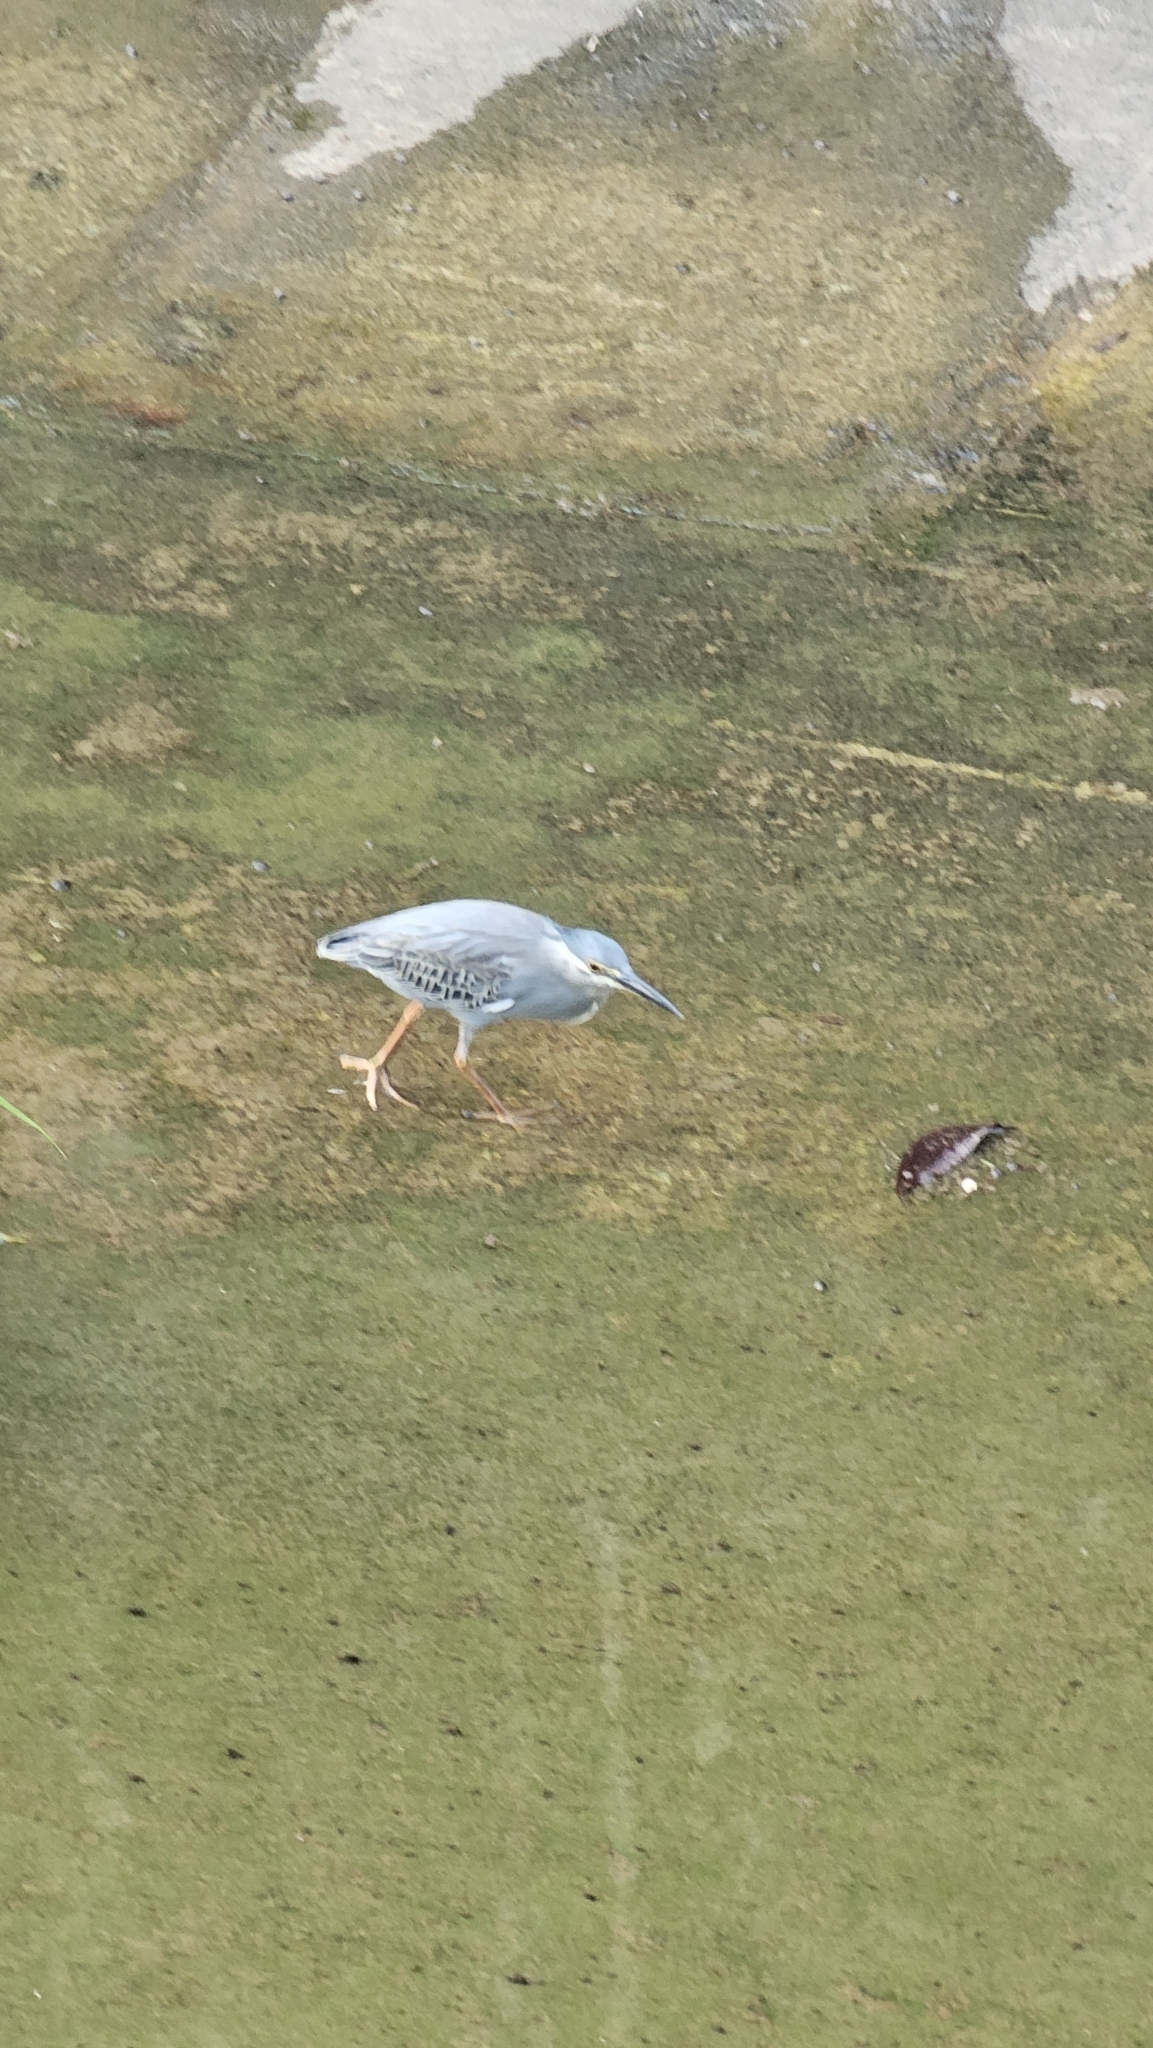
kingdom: Animalia
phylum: Chordata
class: Aves
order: Pelecaniformes
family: Ardeidae
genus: Butorides
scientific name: Butorides striata
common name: Striated heron
